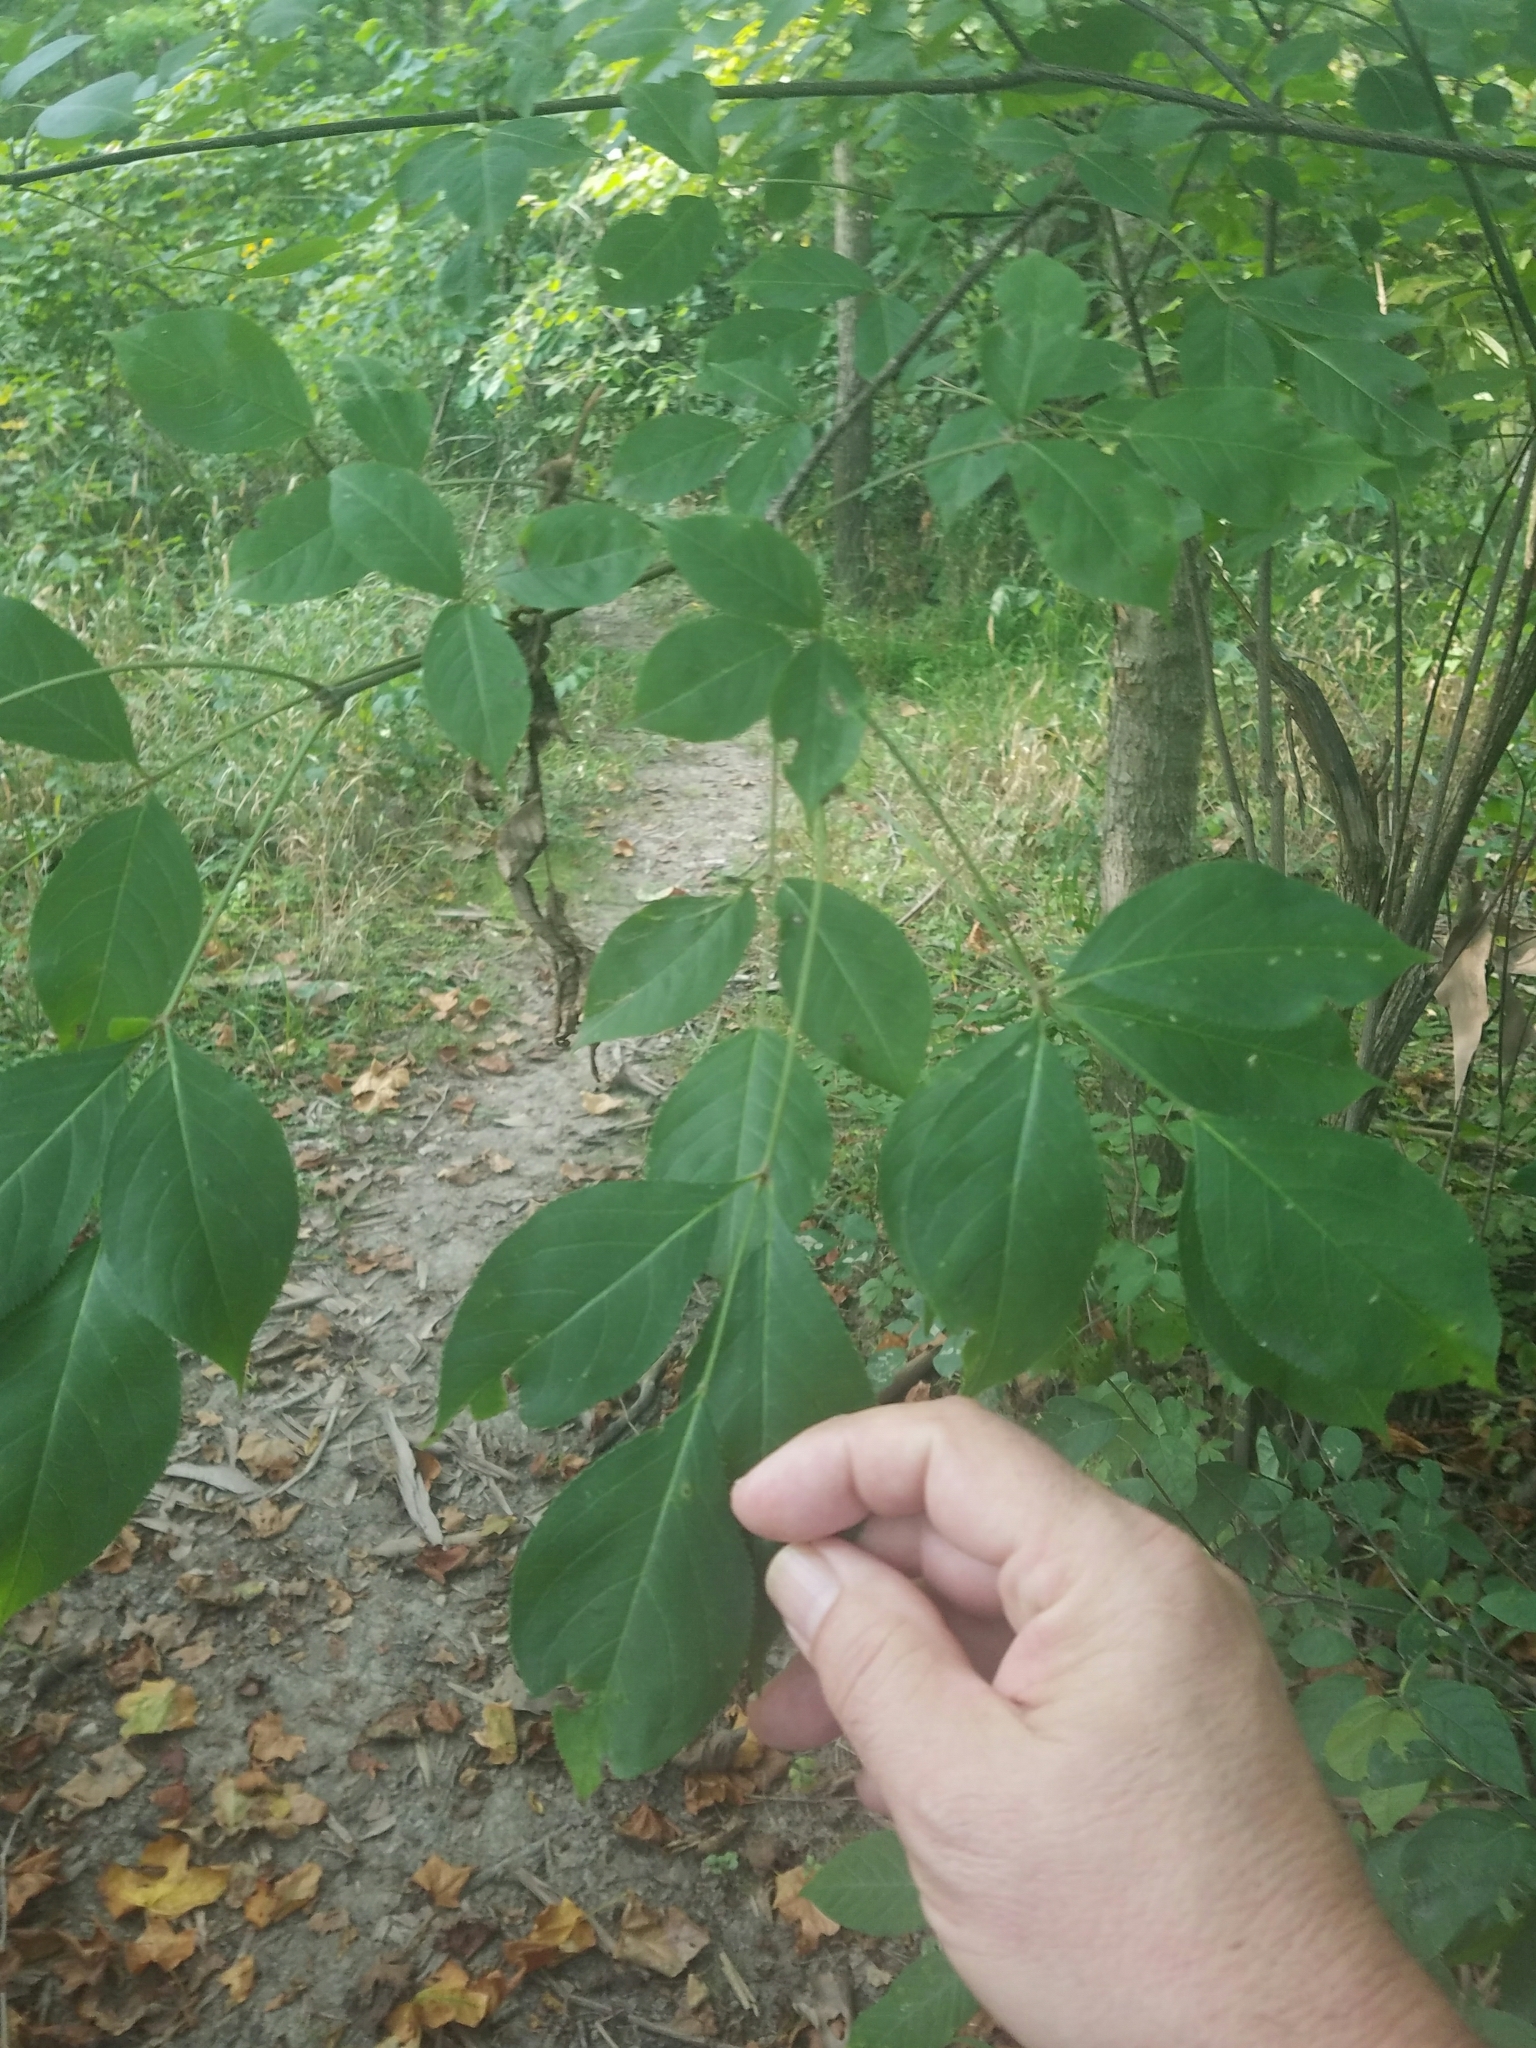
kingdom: Plantae
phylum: Tracheophyta
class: Magnoliopsida
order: Crossosomatales
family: Staphyleaceae
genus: Staphylea
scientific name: Staphylea trifolia
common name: American bladdernut
